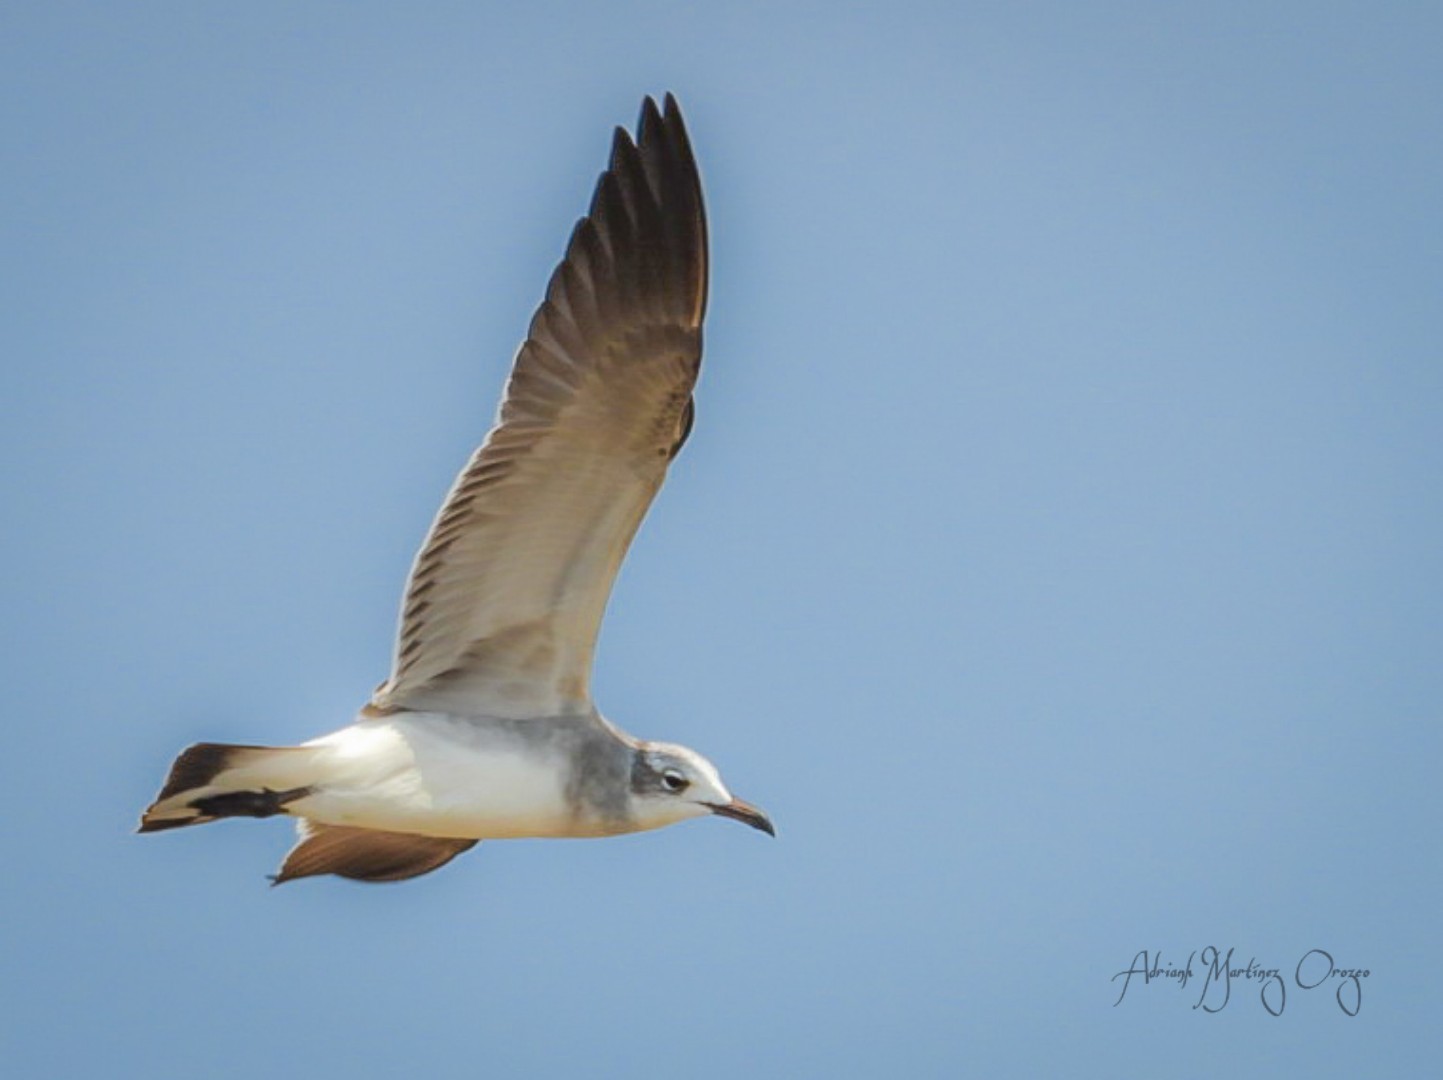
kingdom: Animalia
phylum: Chordata
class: Aves
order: Charadriiformes
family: Laridae
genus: Leucophaeus
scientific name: Leucophaeus atricilla
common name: Laughing gull
